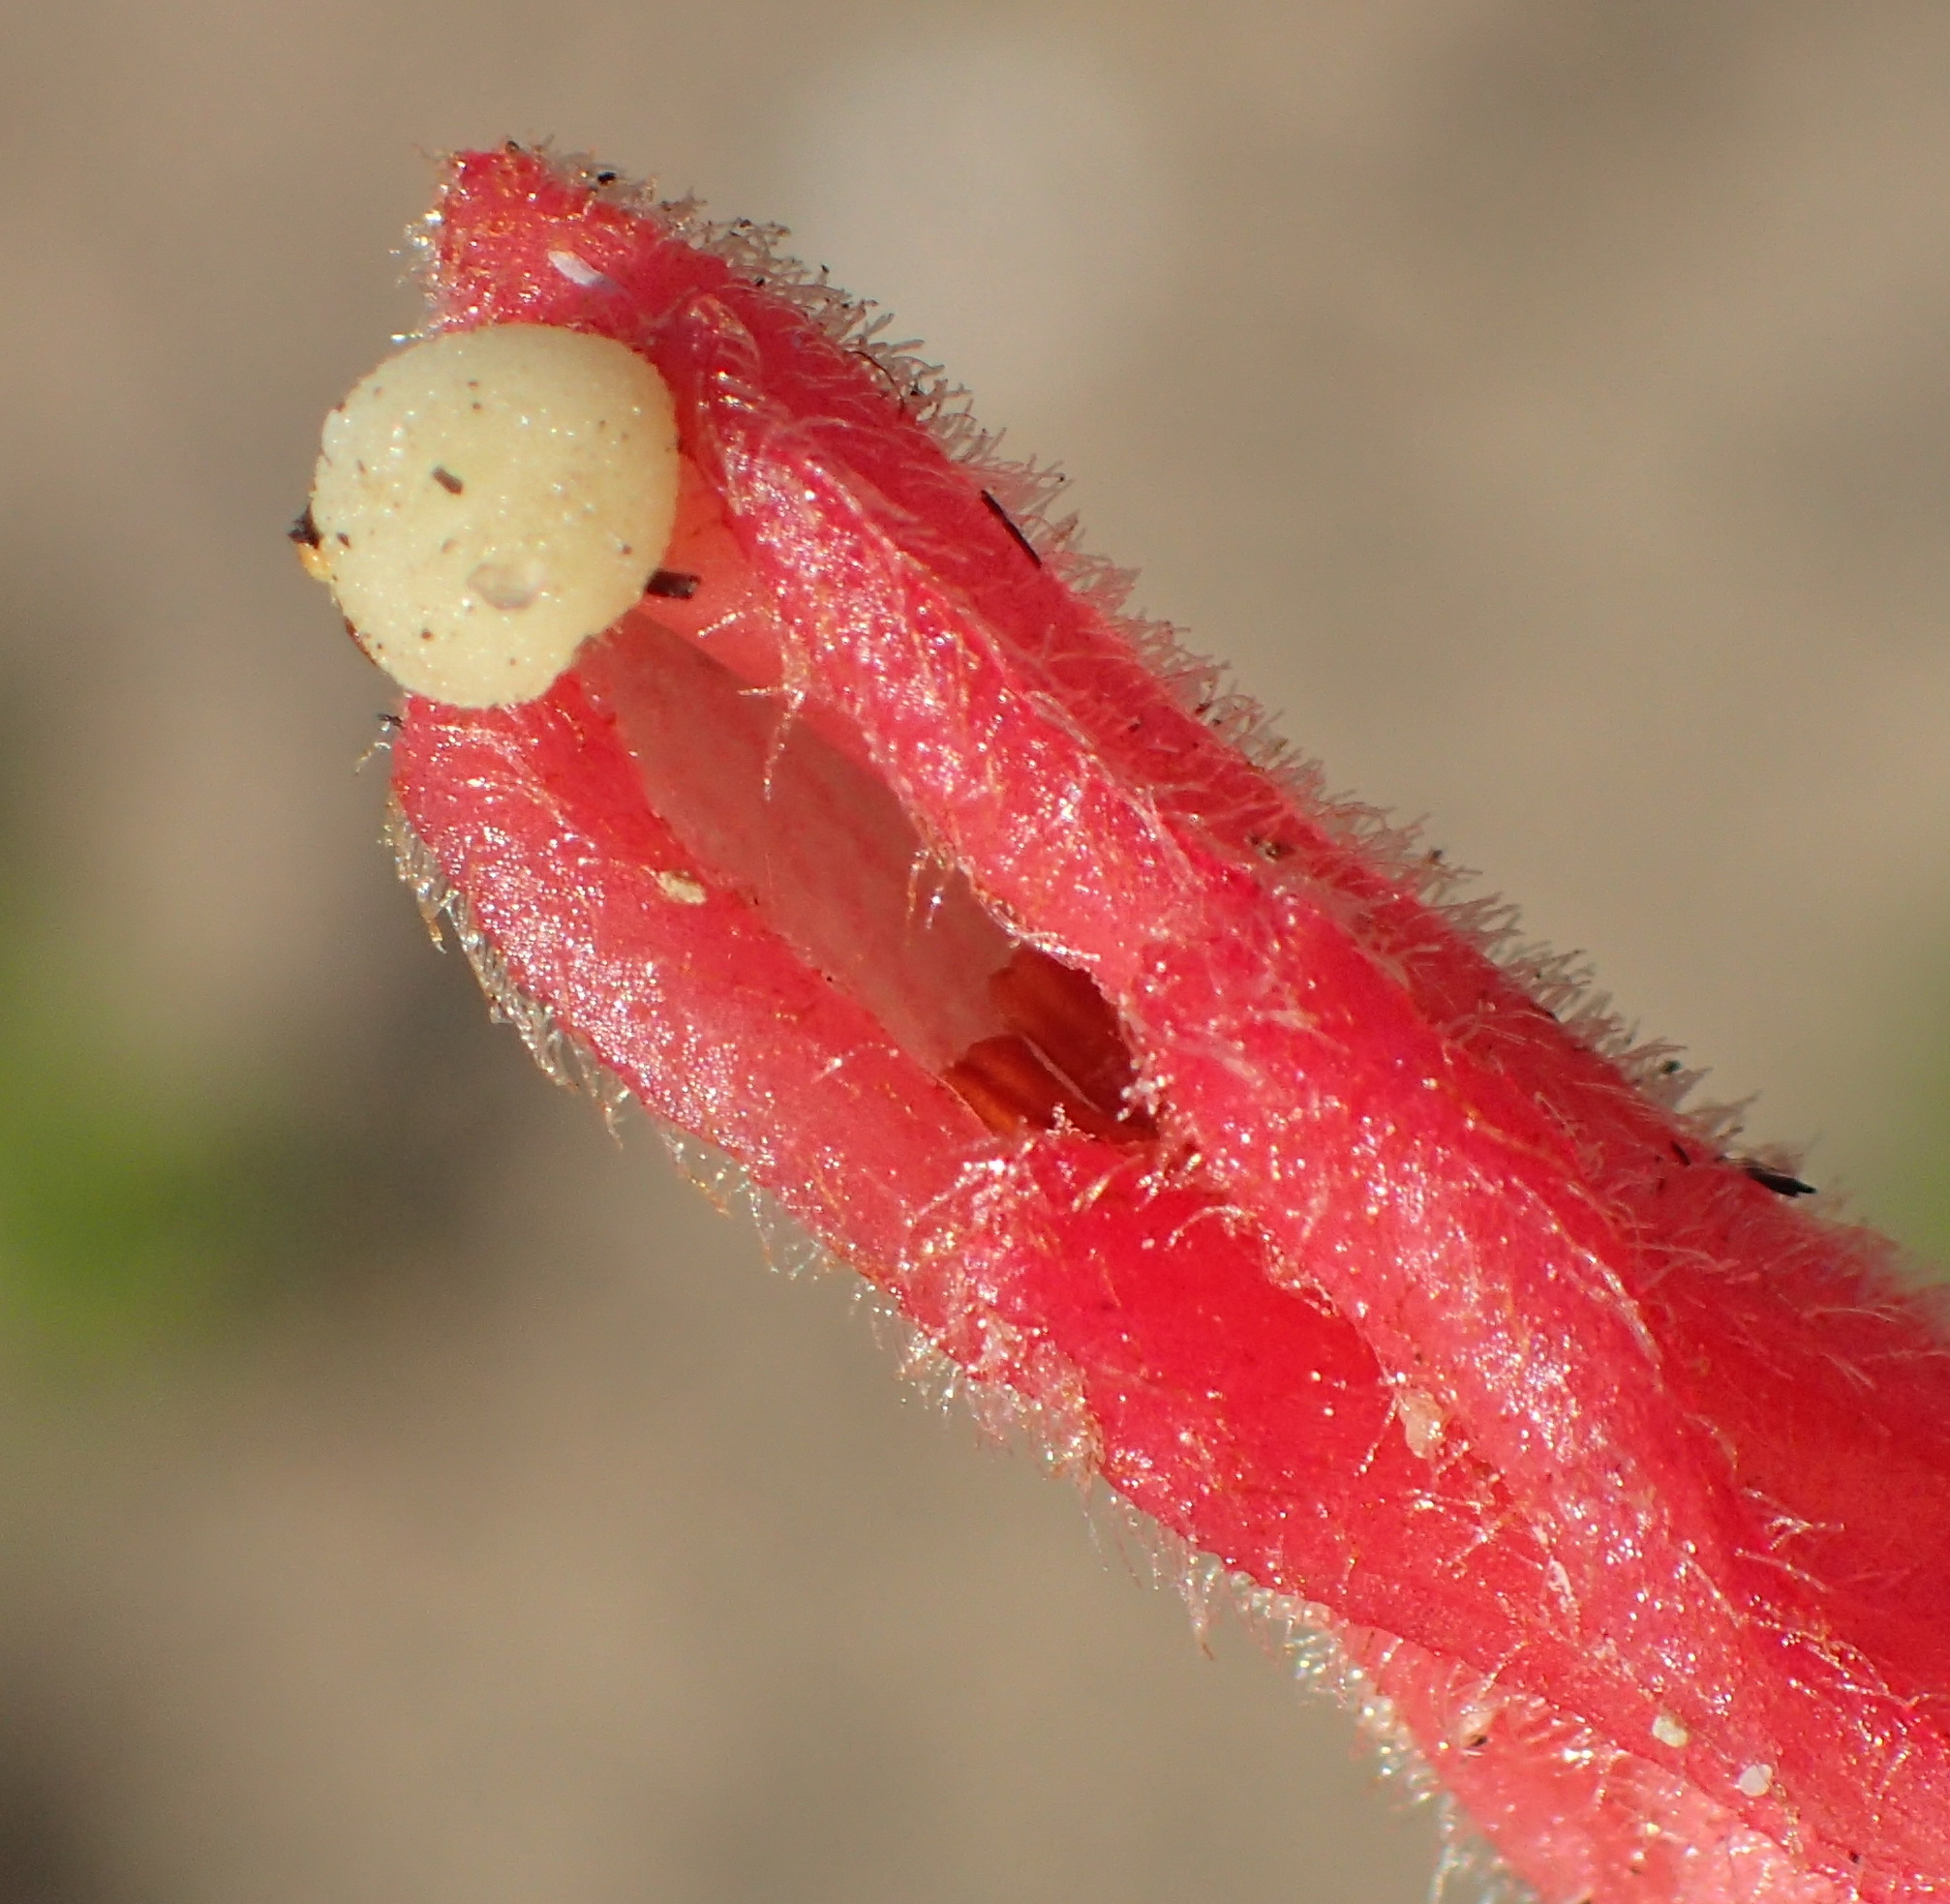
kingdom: Plantae
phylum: Tracheophyta
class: Magnoliopsida
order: Lamiales
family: Orobanchaceae
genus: Hyobanche
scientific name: Hyobanche glabrata
